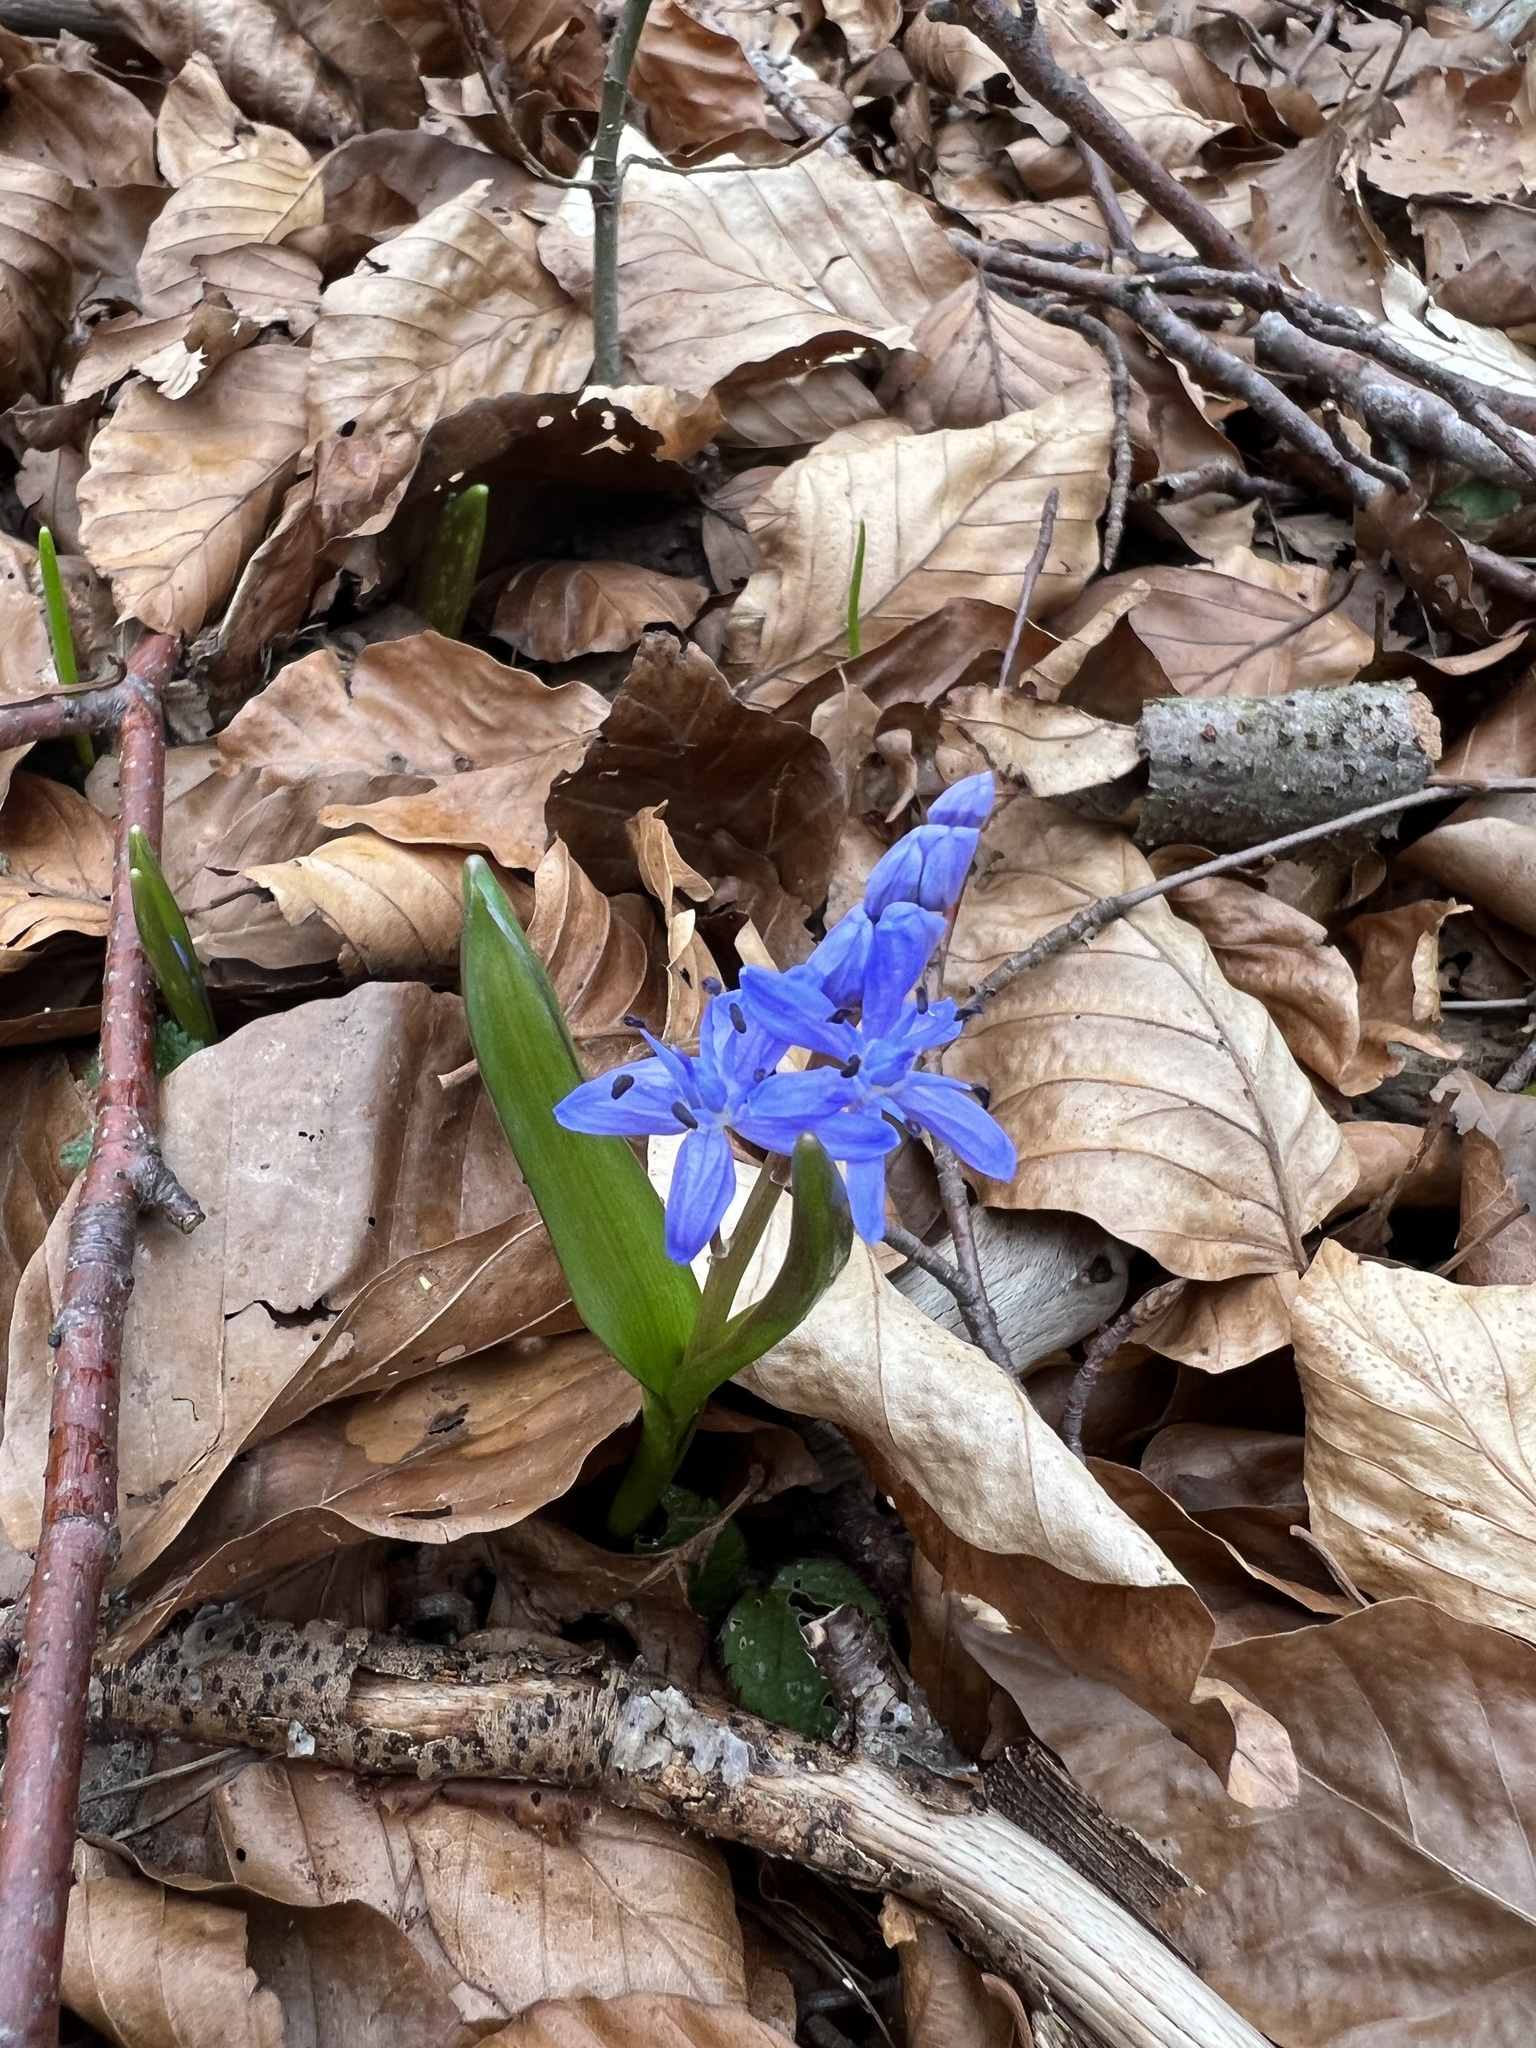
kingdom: Plantae
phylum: Tracheophyta
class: Liliopsida
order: Asparagales
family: Asparagaceae
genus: Scilla
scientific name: Scilla bifolia
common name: Alpine squill
